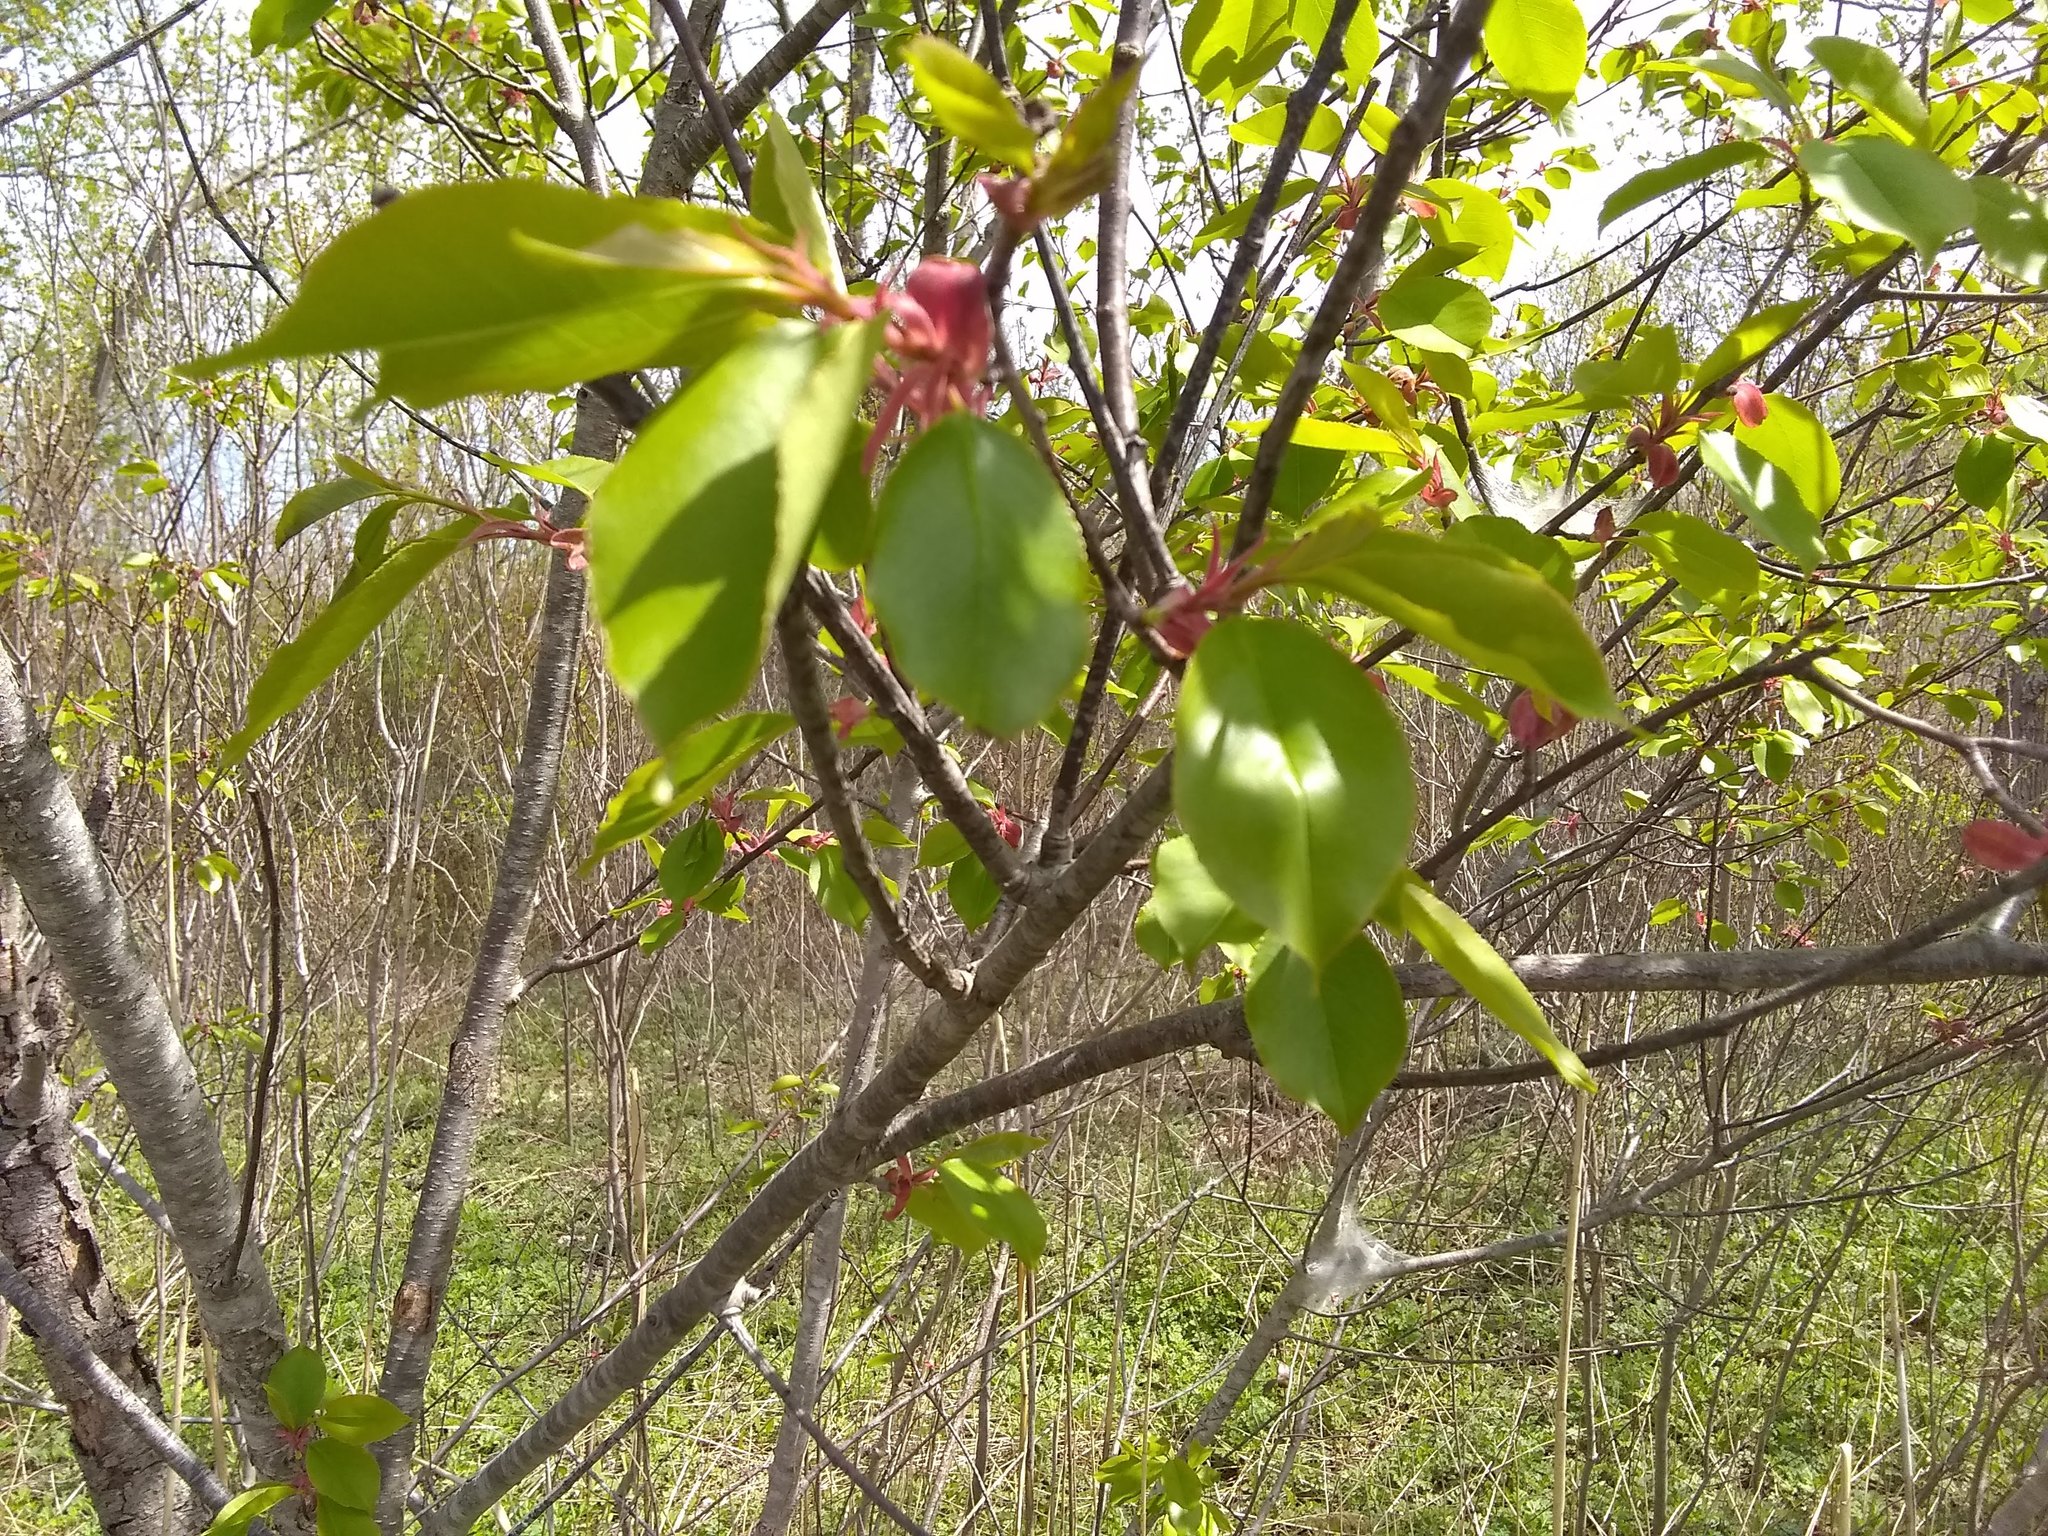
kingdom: Plantae
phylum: Tracheophyta
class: Magnoliopsida
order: Rosales
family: Rosaceae
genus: Prunus
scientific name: Prunus serotina
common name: Black cherry
